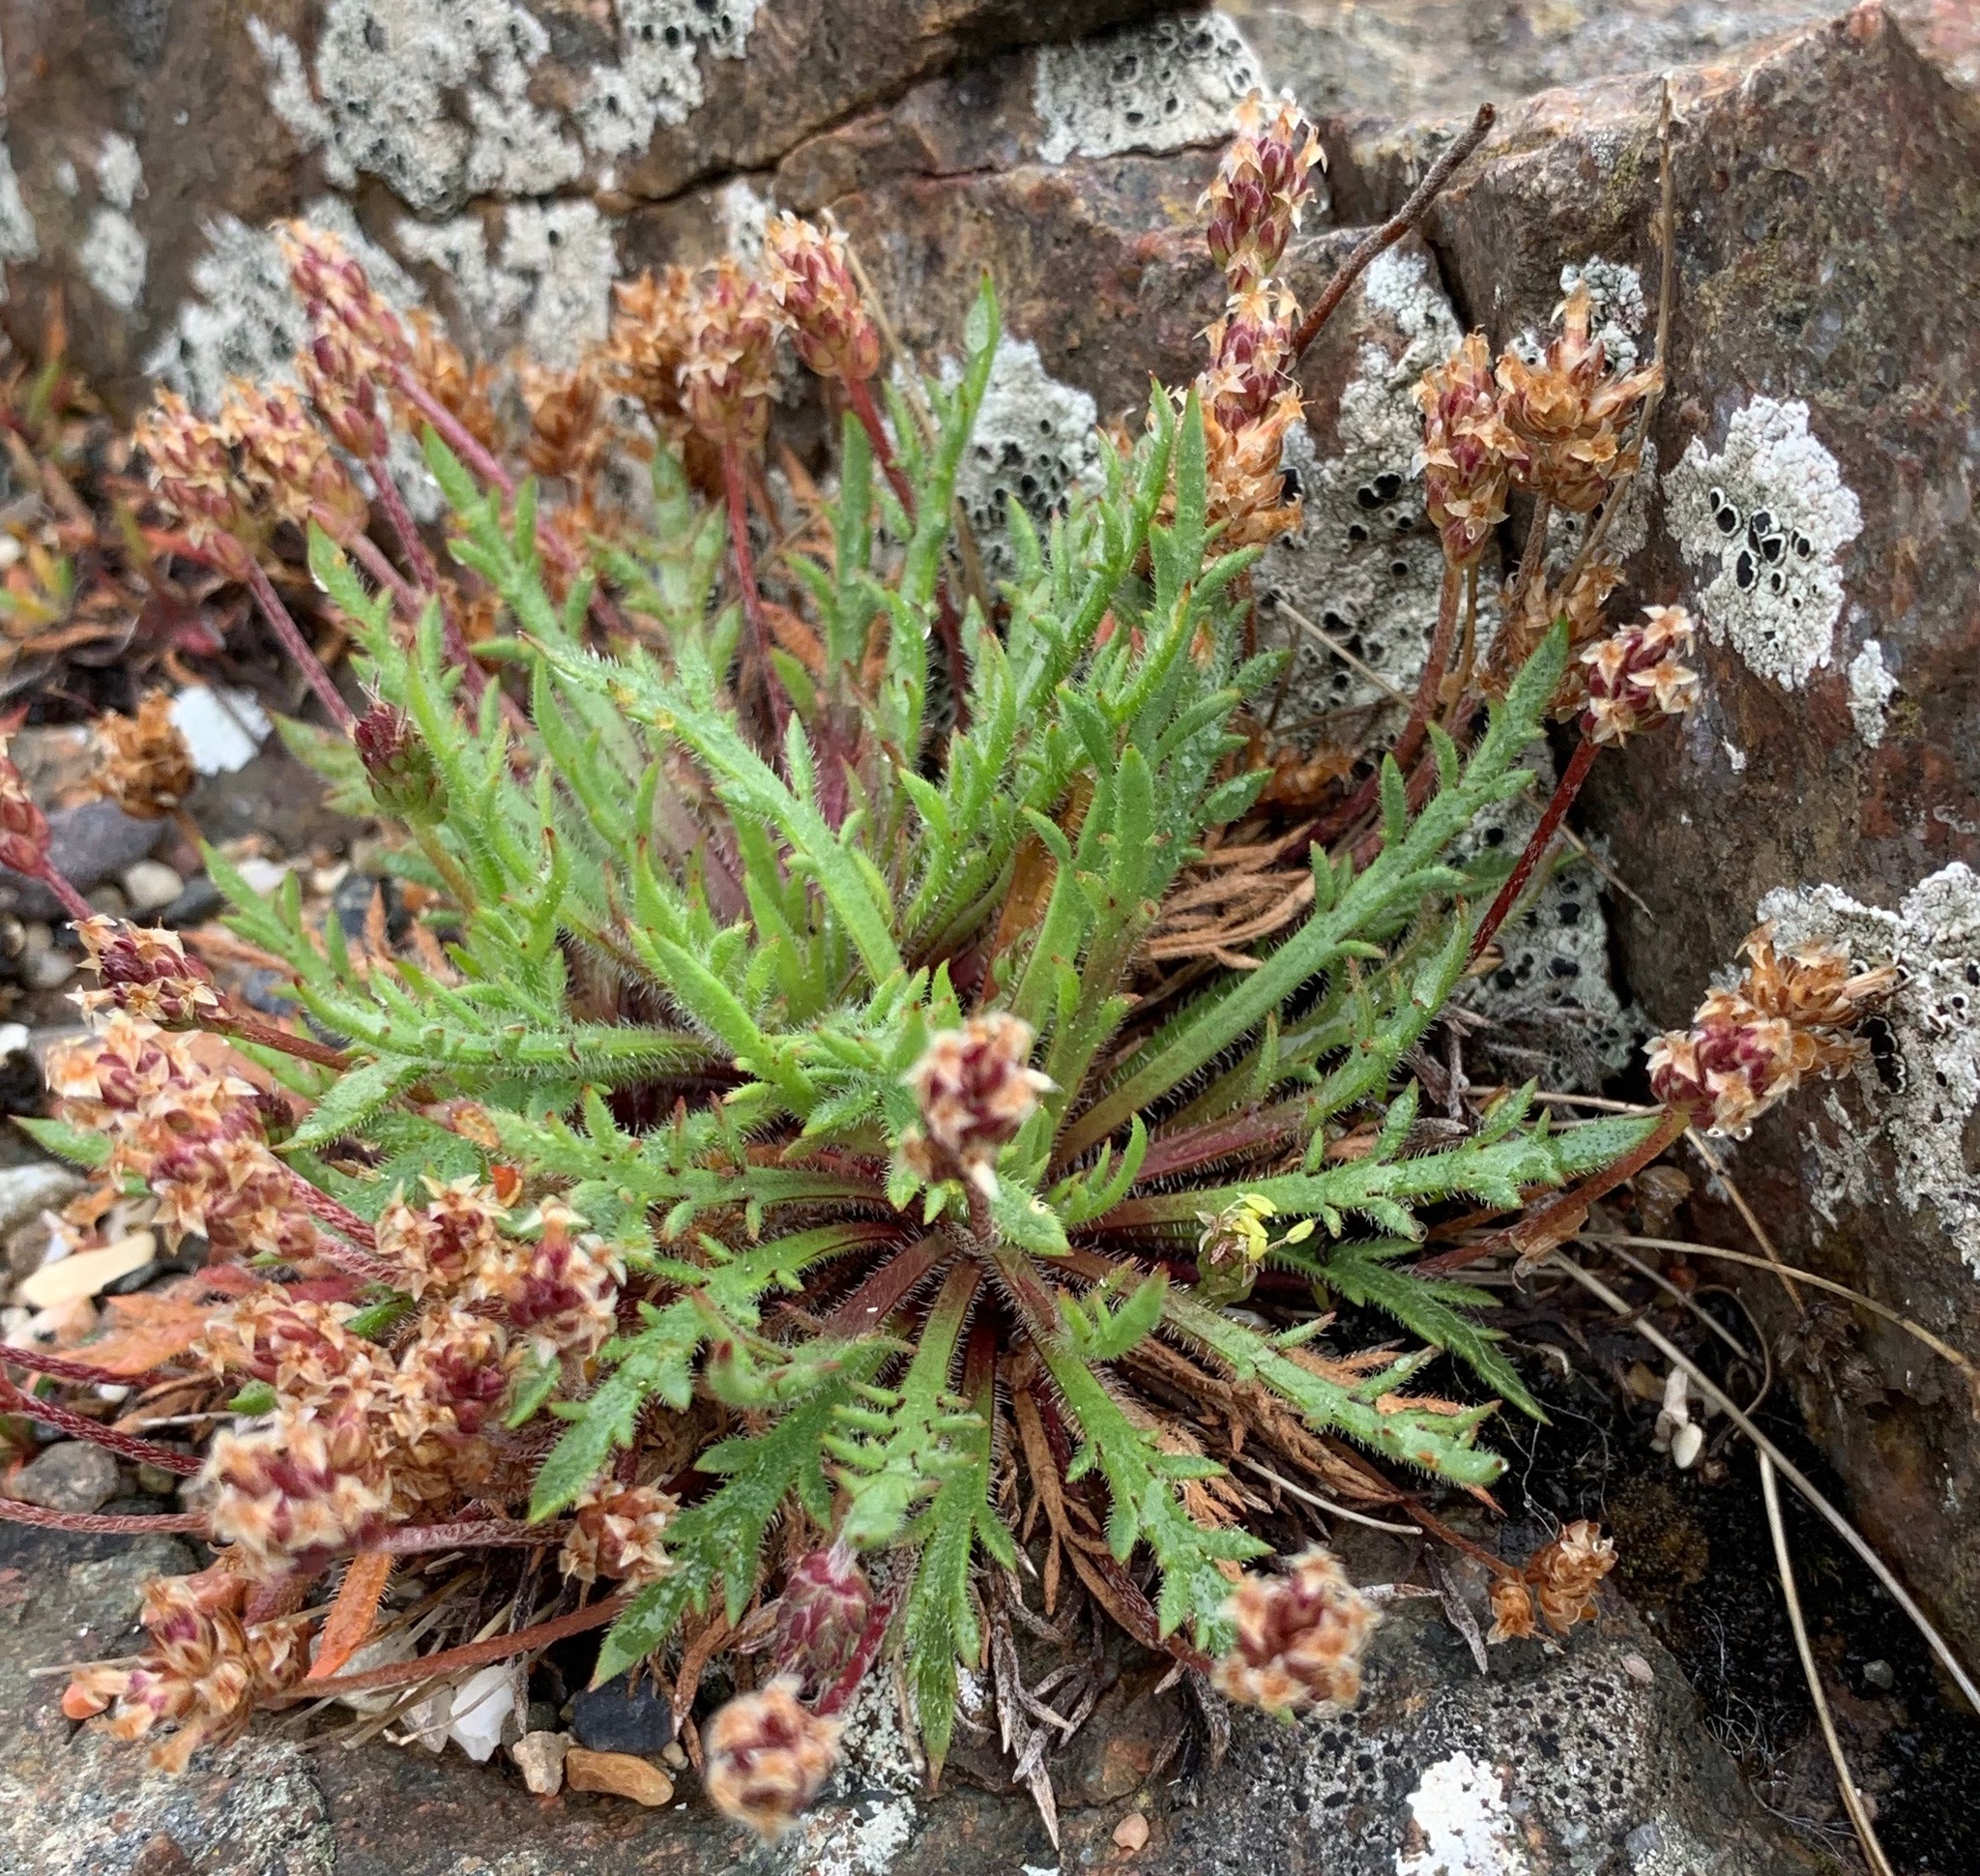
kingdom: Plantae
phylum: Tracheophyta
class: Magnoliopsida
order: Lamiales
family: Plantaginaceae
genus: Plantago
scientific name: Plantago coronopus
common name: Buck's-horn plantain
